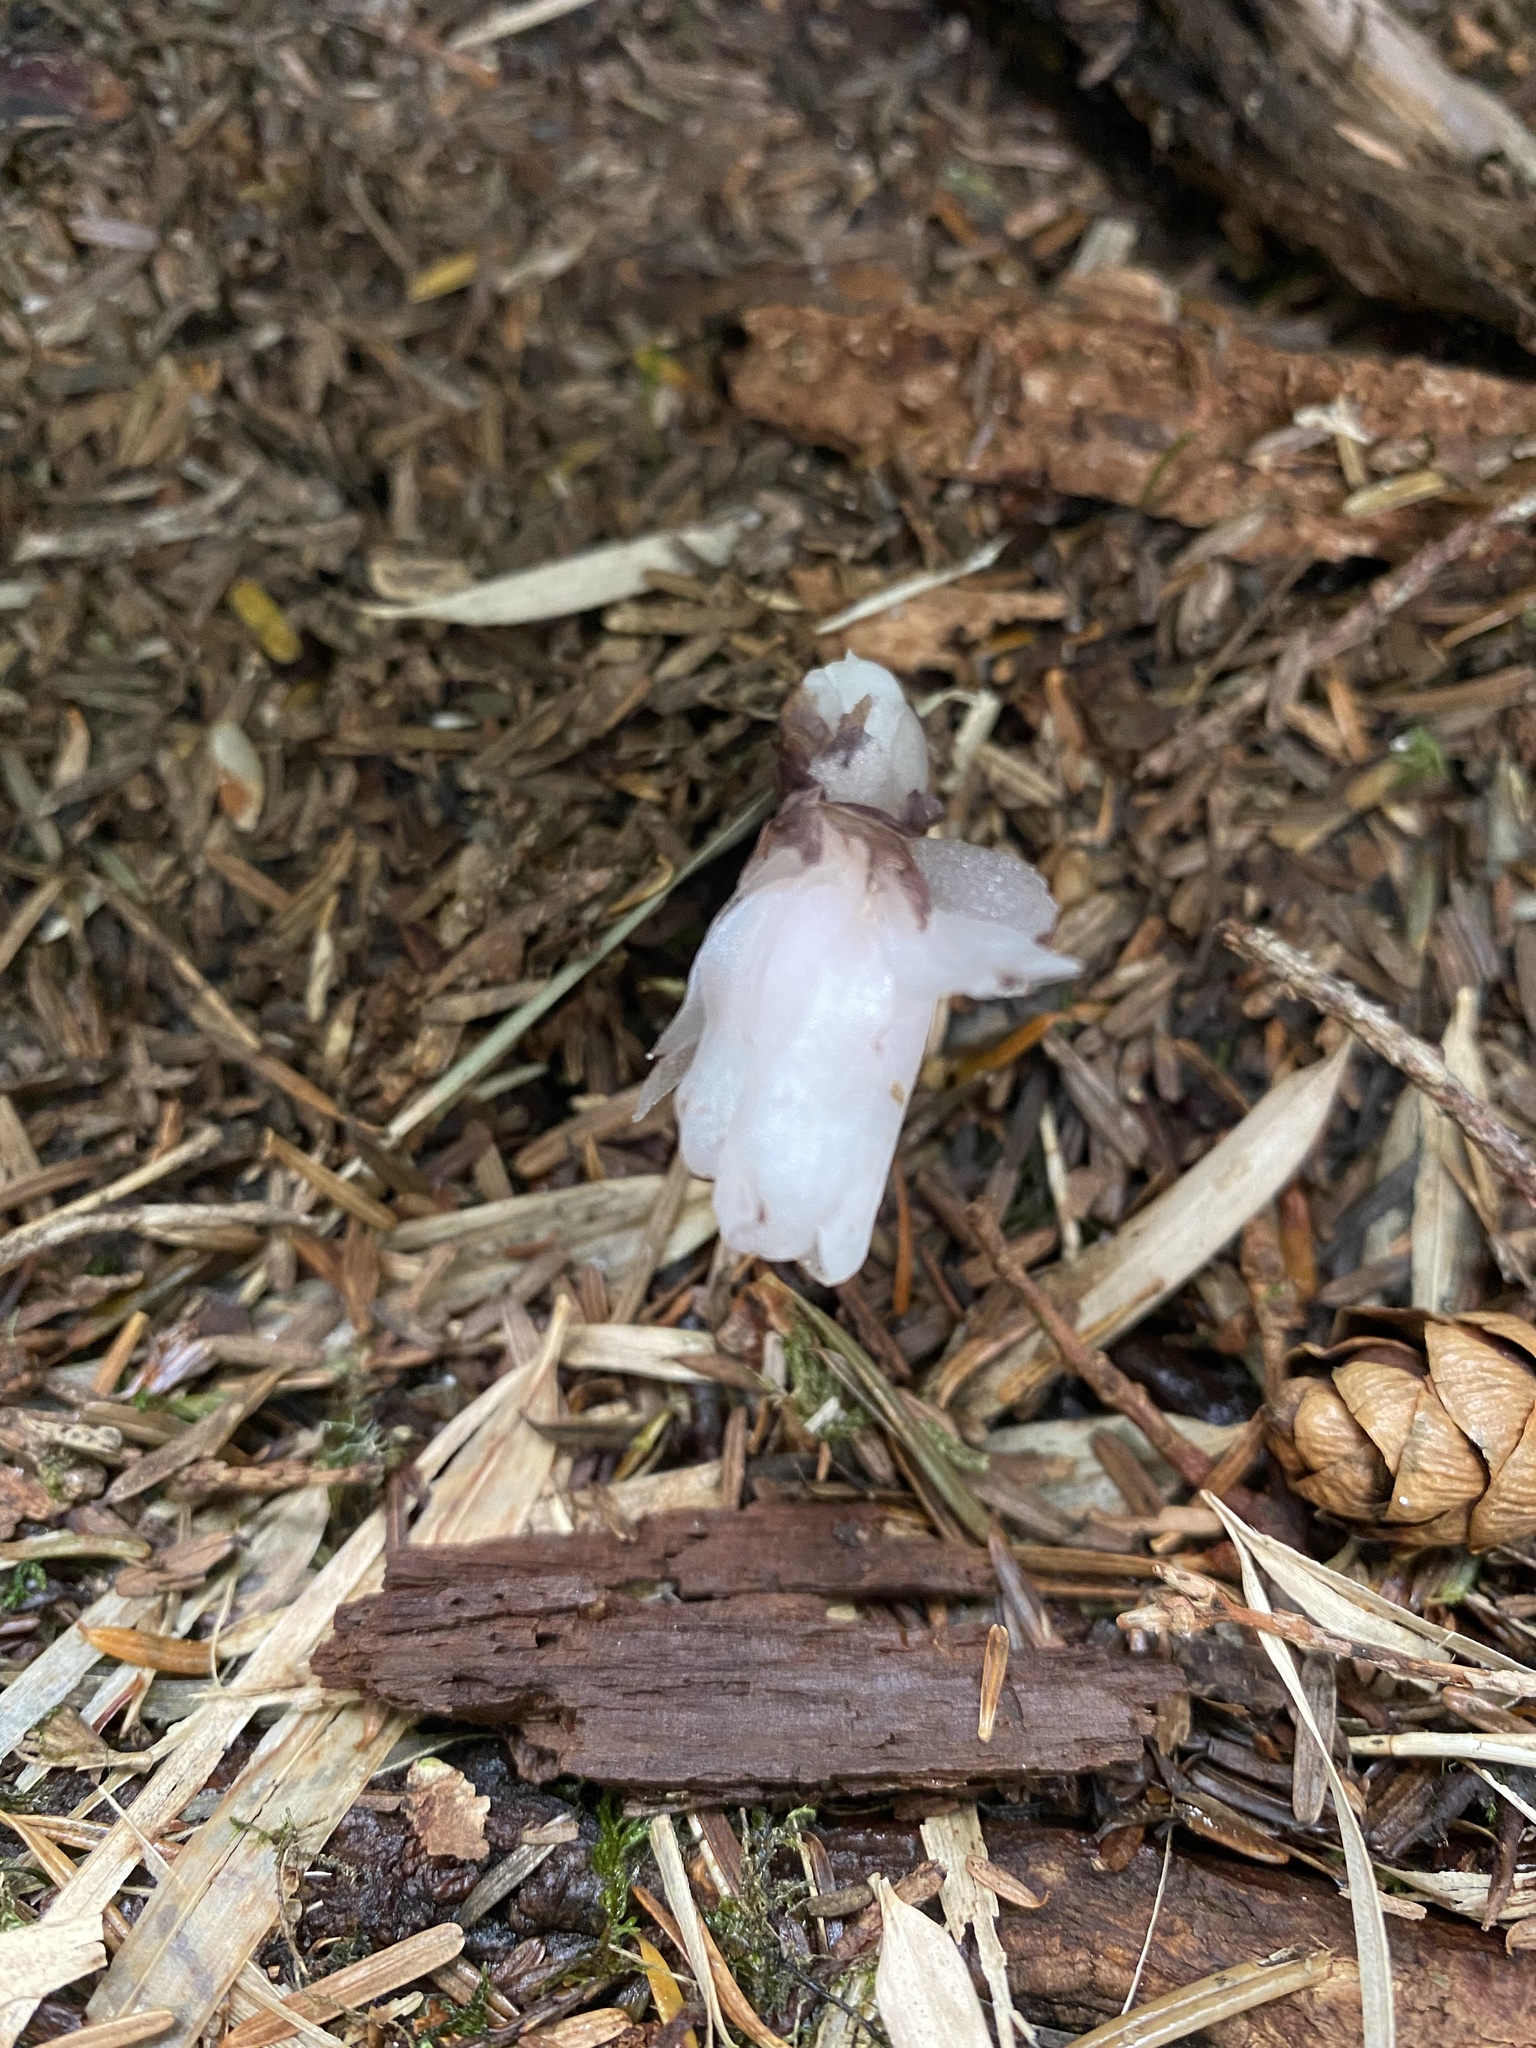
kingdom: Plantae
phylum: Tracheophyta
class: Magnoliopsida
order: Ericales
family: Ericaceae
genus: Monotropastrum
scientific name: Monotropastrum humile
